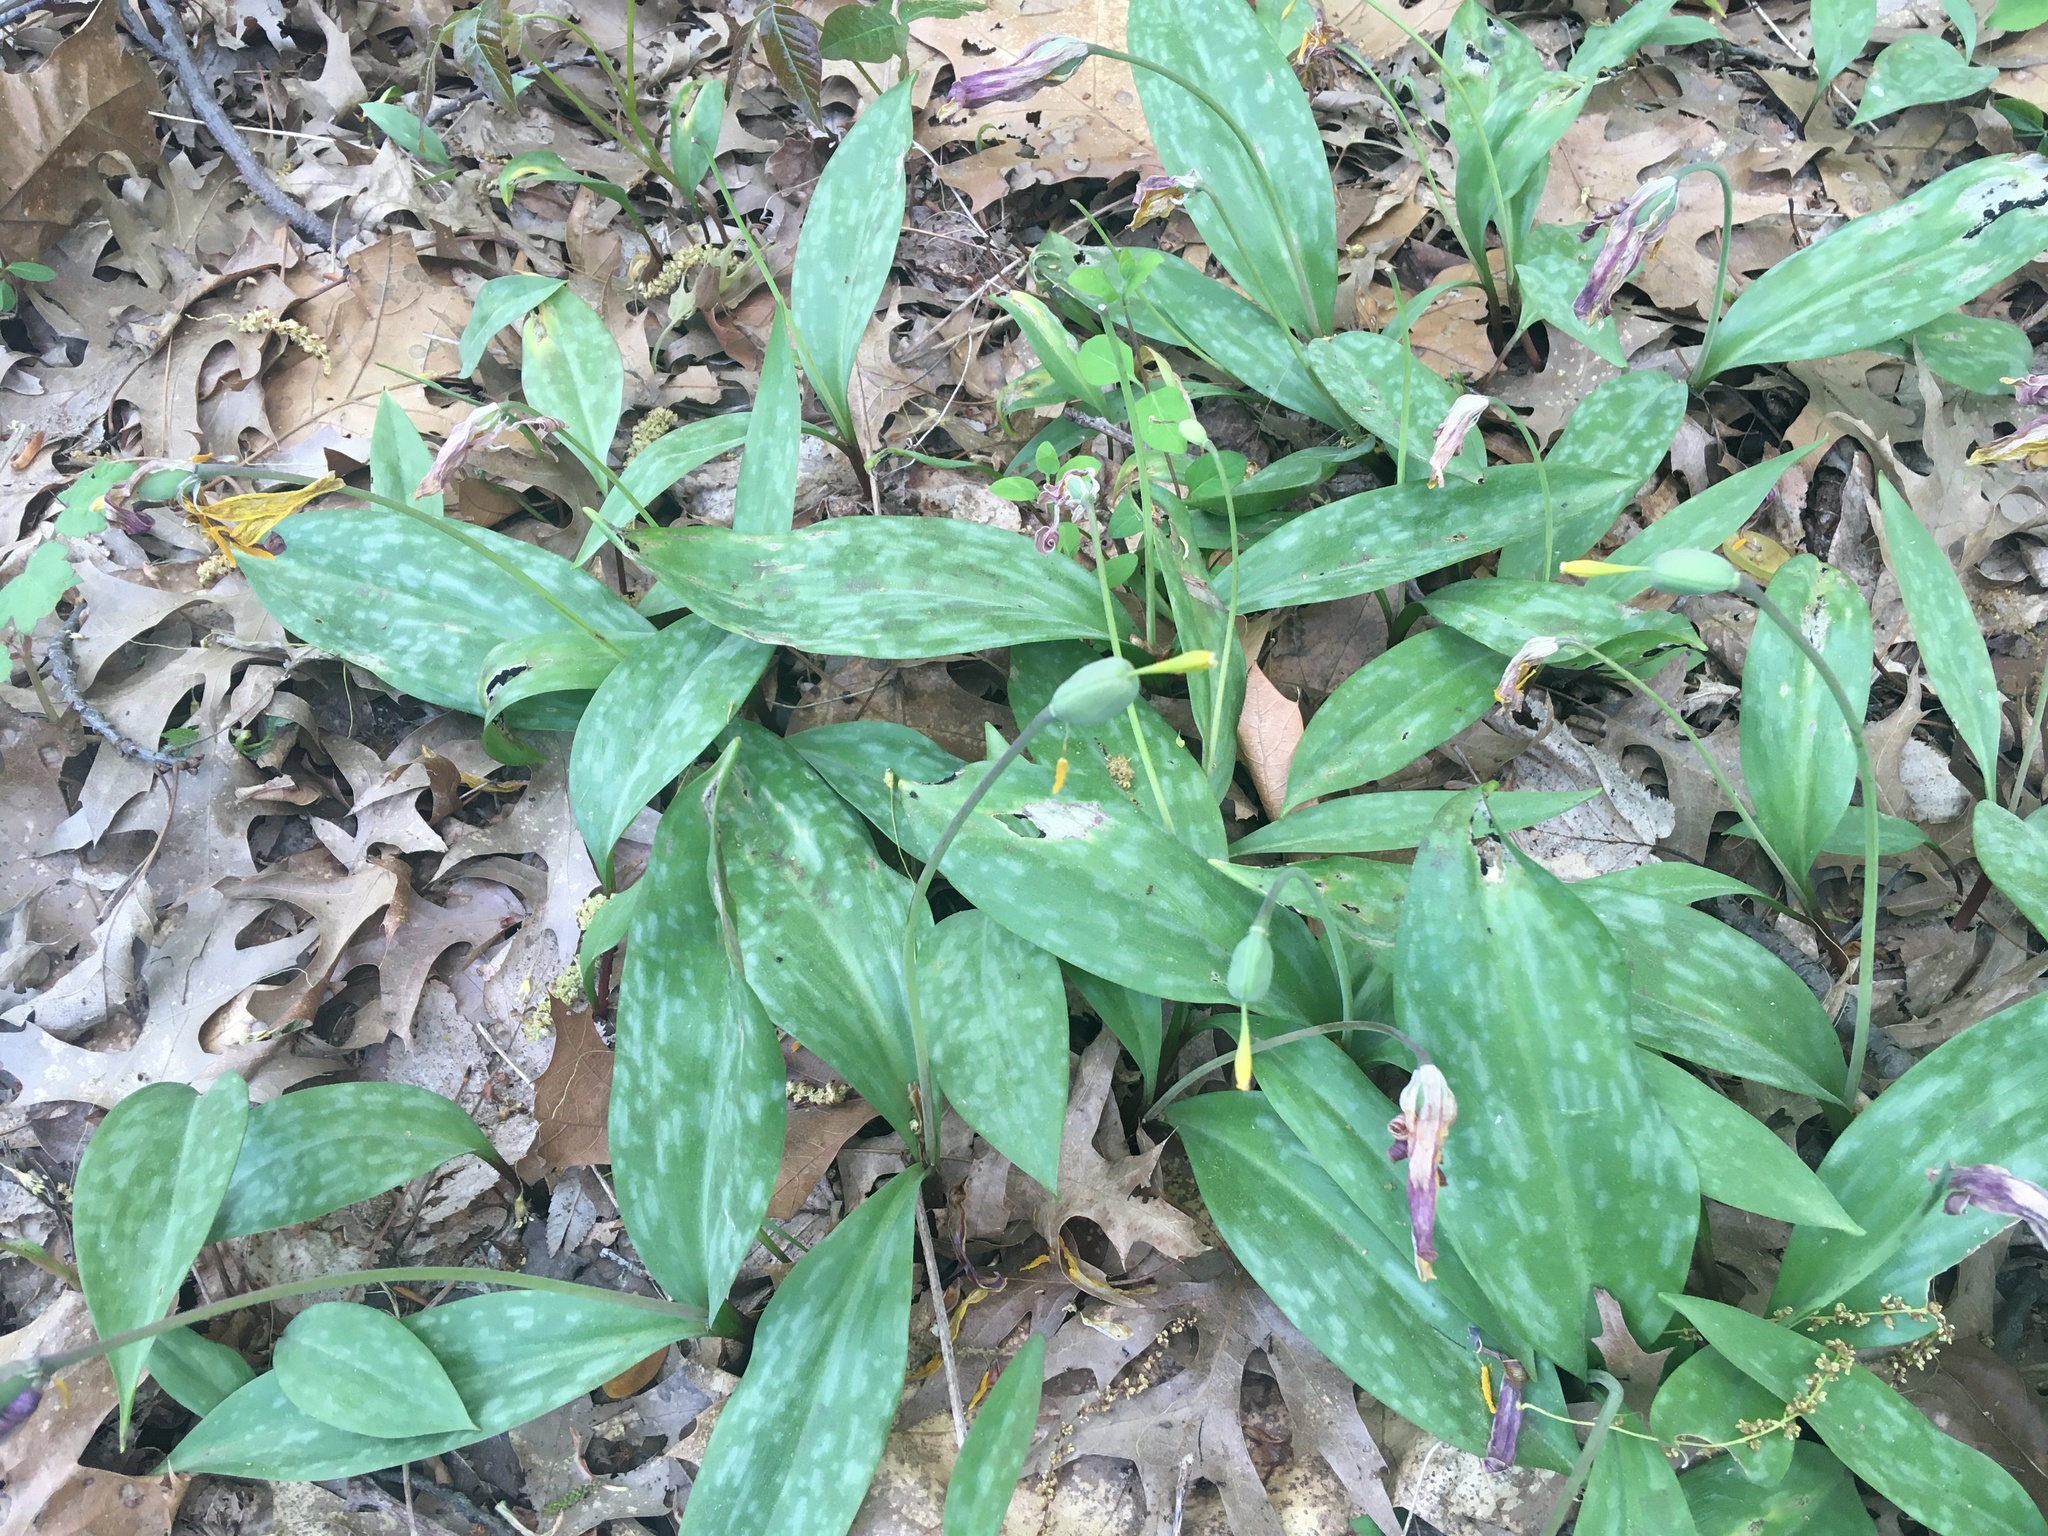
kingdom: Plantae
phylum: Tracheophyta
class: Liliopsida
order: Liliales
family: Liliaceae
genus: Erythronium
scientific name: Erythronium americanum
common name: Yellow adder's-tongue
